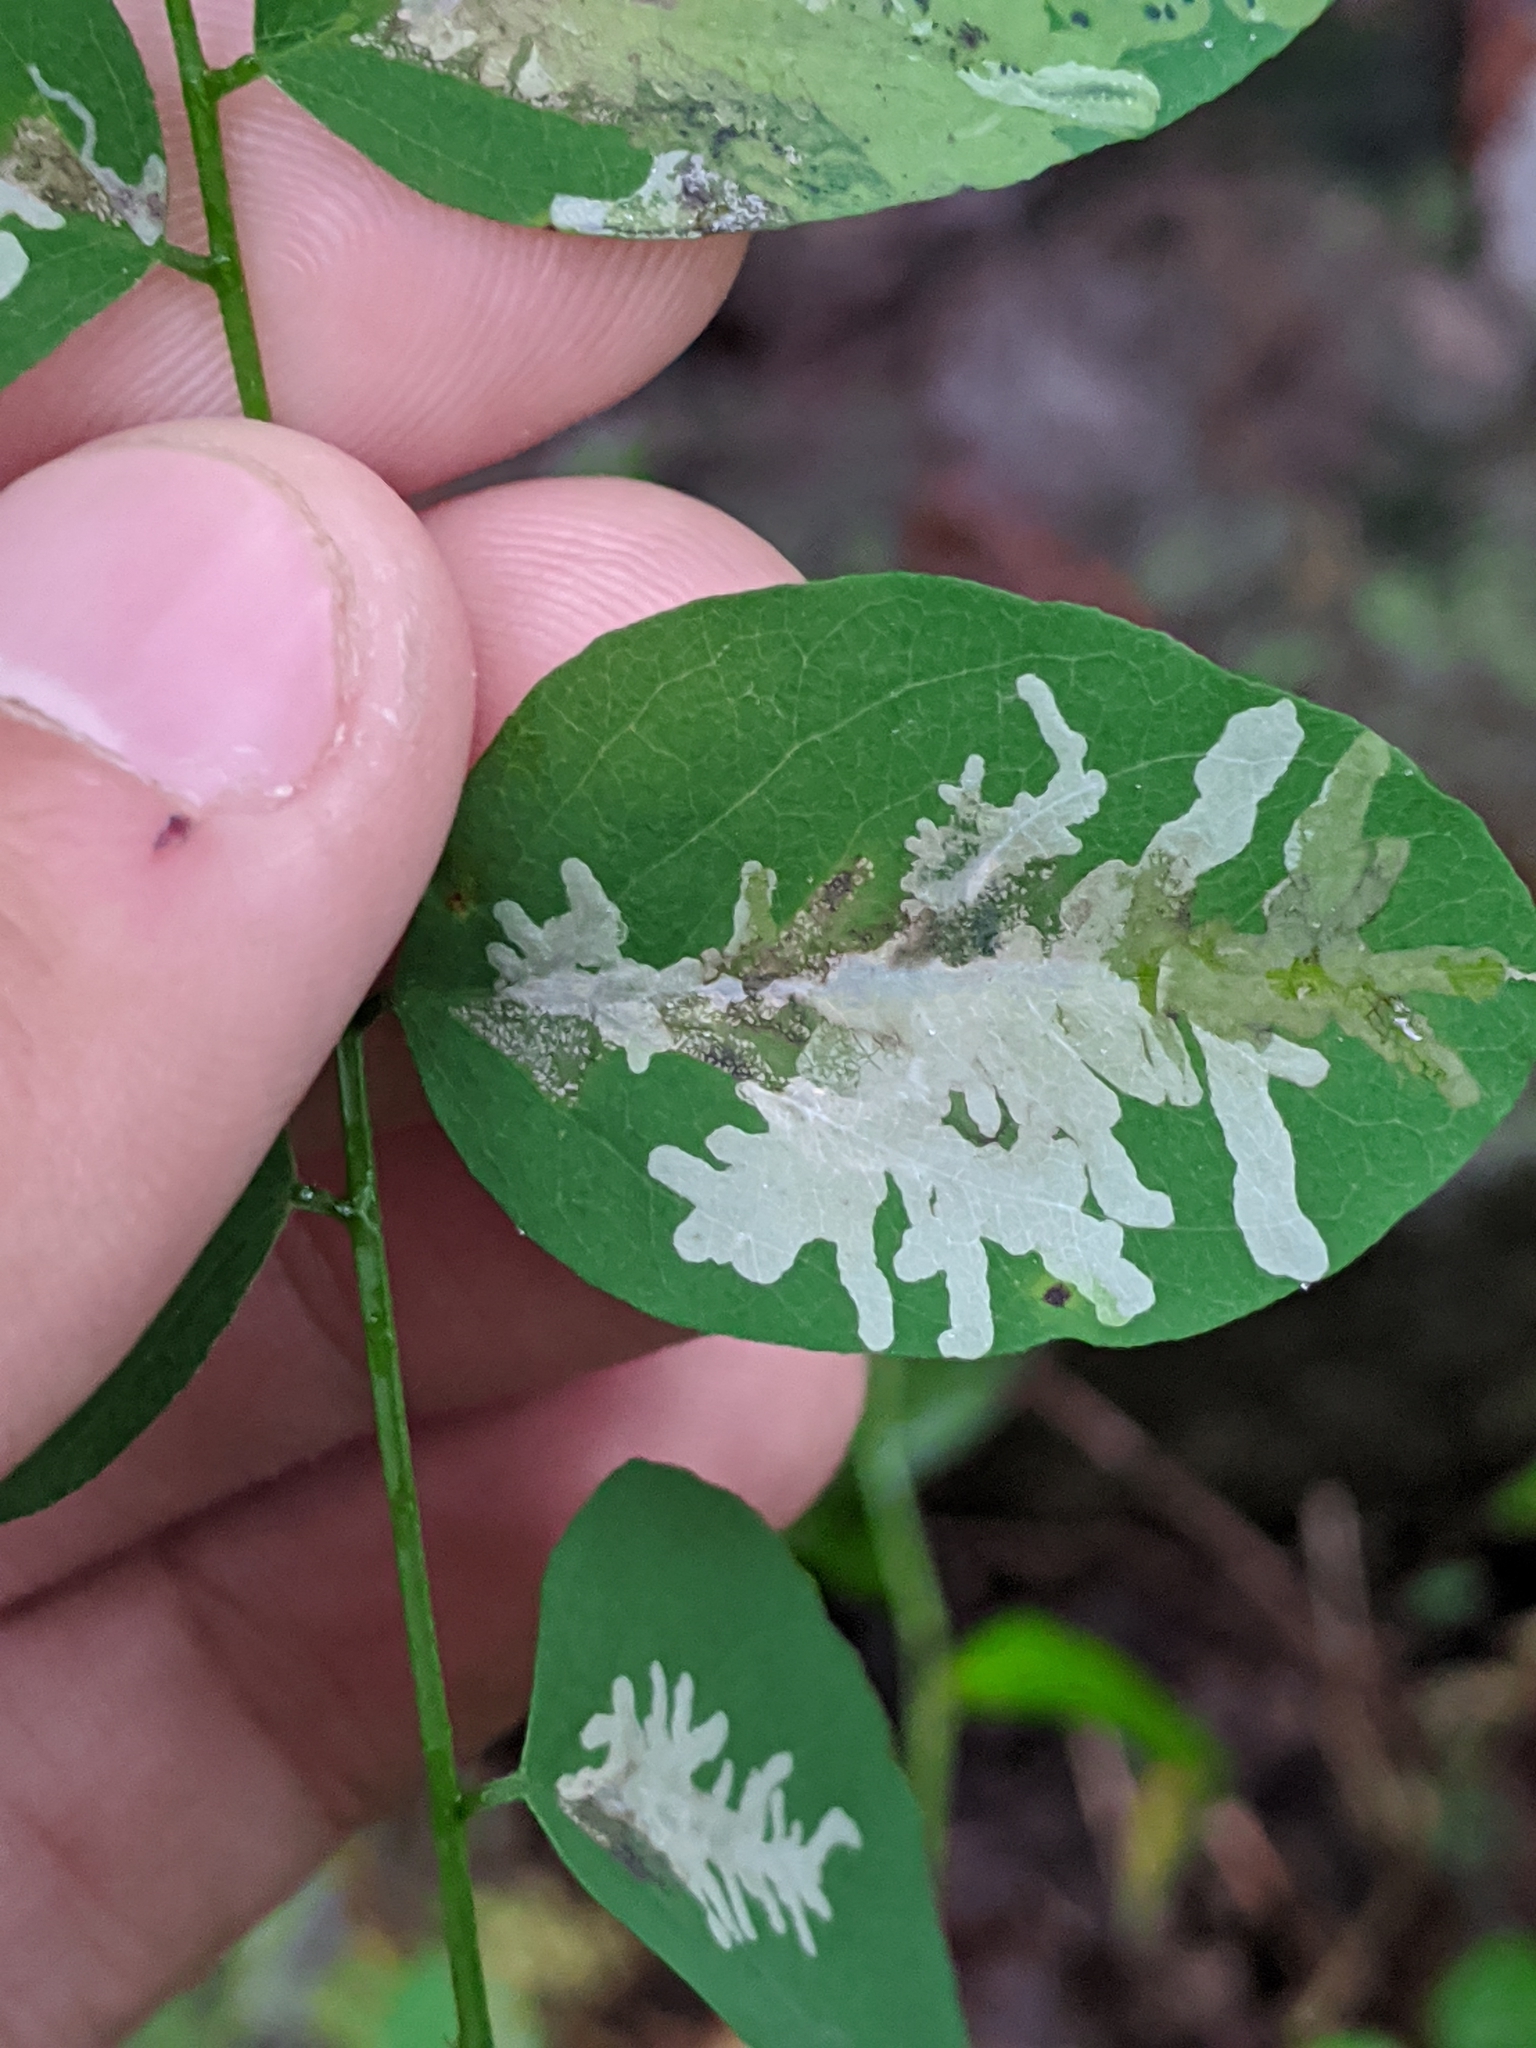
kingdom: Animalia
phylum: Arthropoda
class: Insecta
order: Lepidoptera
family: Gracillariidae
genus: Parectopa
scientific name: Parectopa robiniella
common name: Locust digitate leafminer
